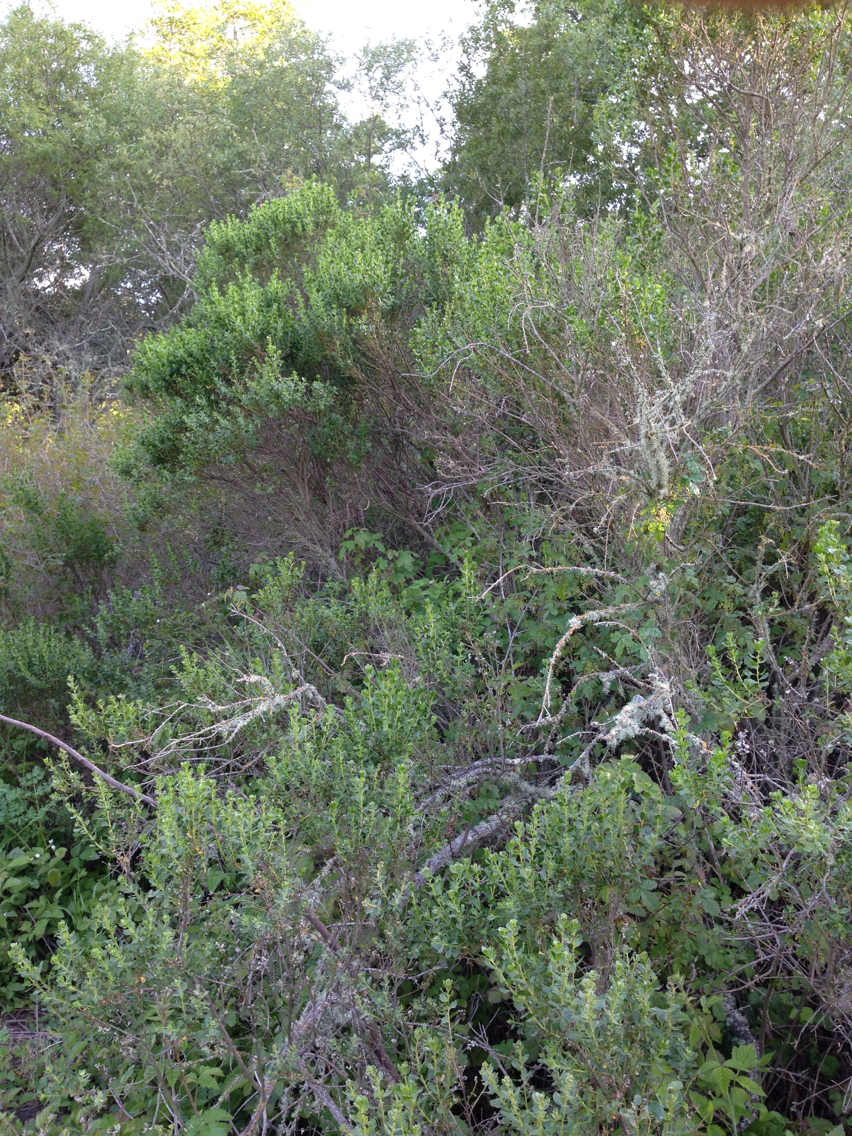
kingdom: Plantae
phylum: Tracheophyta
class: Magnoliopsida
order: Asterales
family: Asteraceae
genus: Baccharis
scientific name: Baccharis pilularis
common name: Coyotebrush
